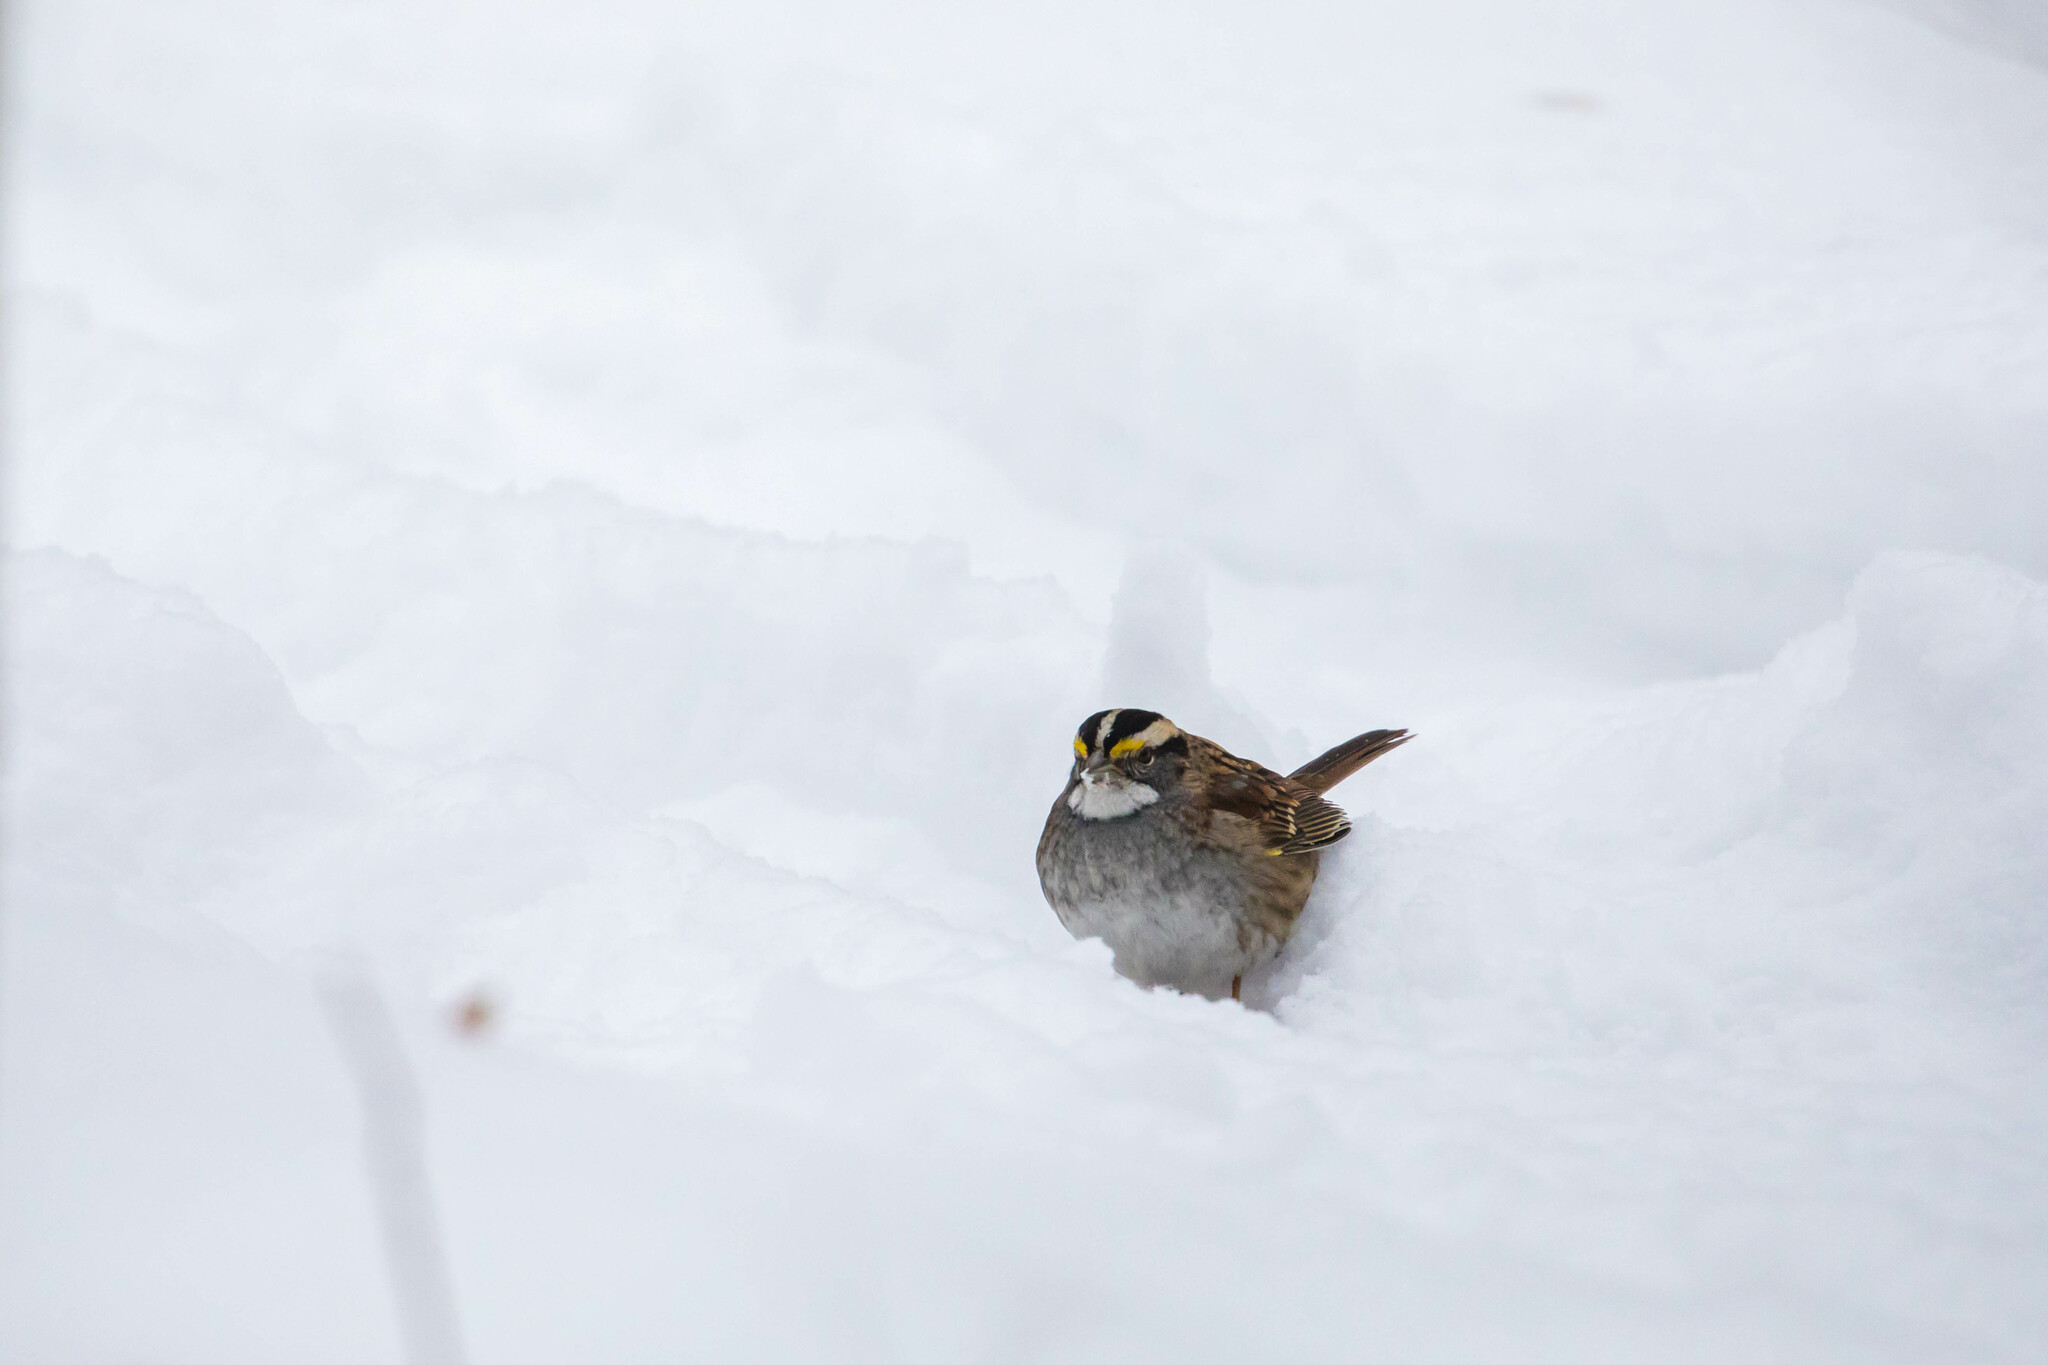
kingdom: Animalia
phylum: Chordata
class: Aves
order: Passeriformes
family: Passerellidae
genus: Zonotrichia
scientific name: Zonotrichia albicollis
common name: White-throated sparrow
